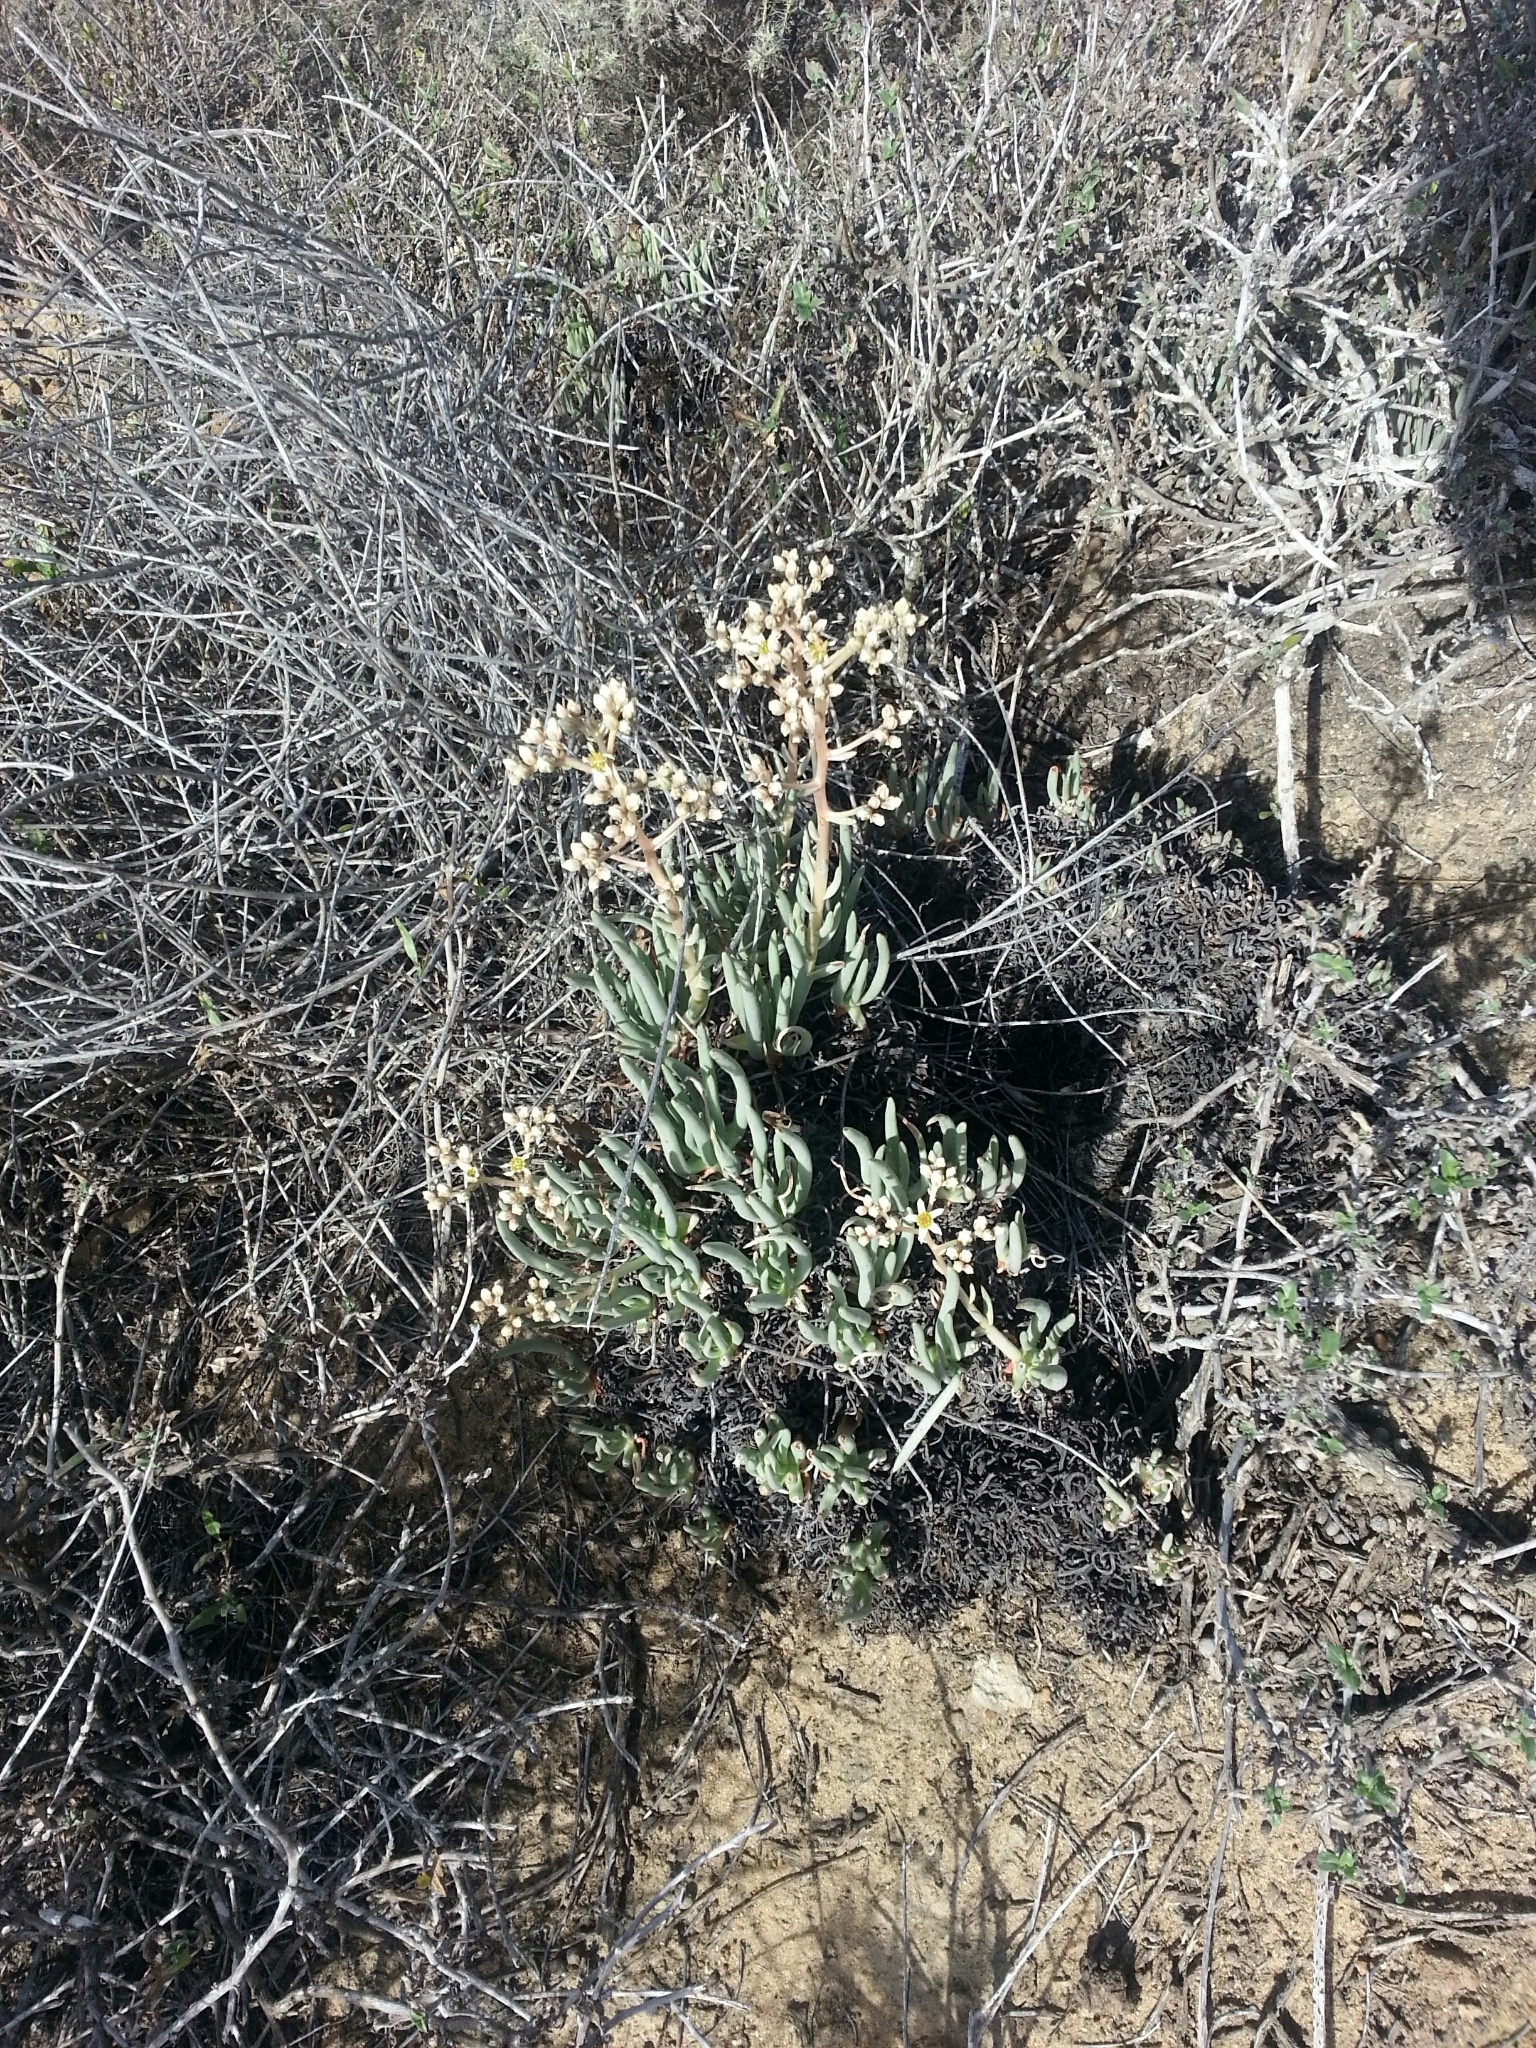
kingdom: Plantae
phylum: Tracheophyta
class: Magnoliopsida
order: Saxifragales
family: Crassulaceae
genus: Dudleya
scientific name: Dudleya edulis
